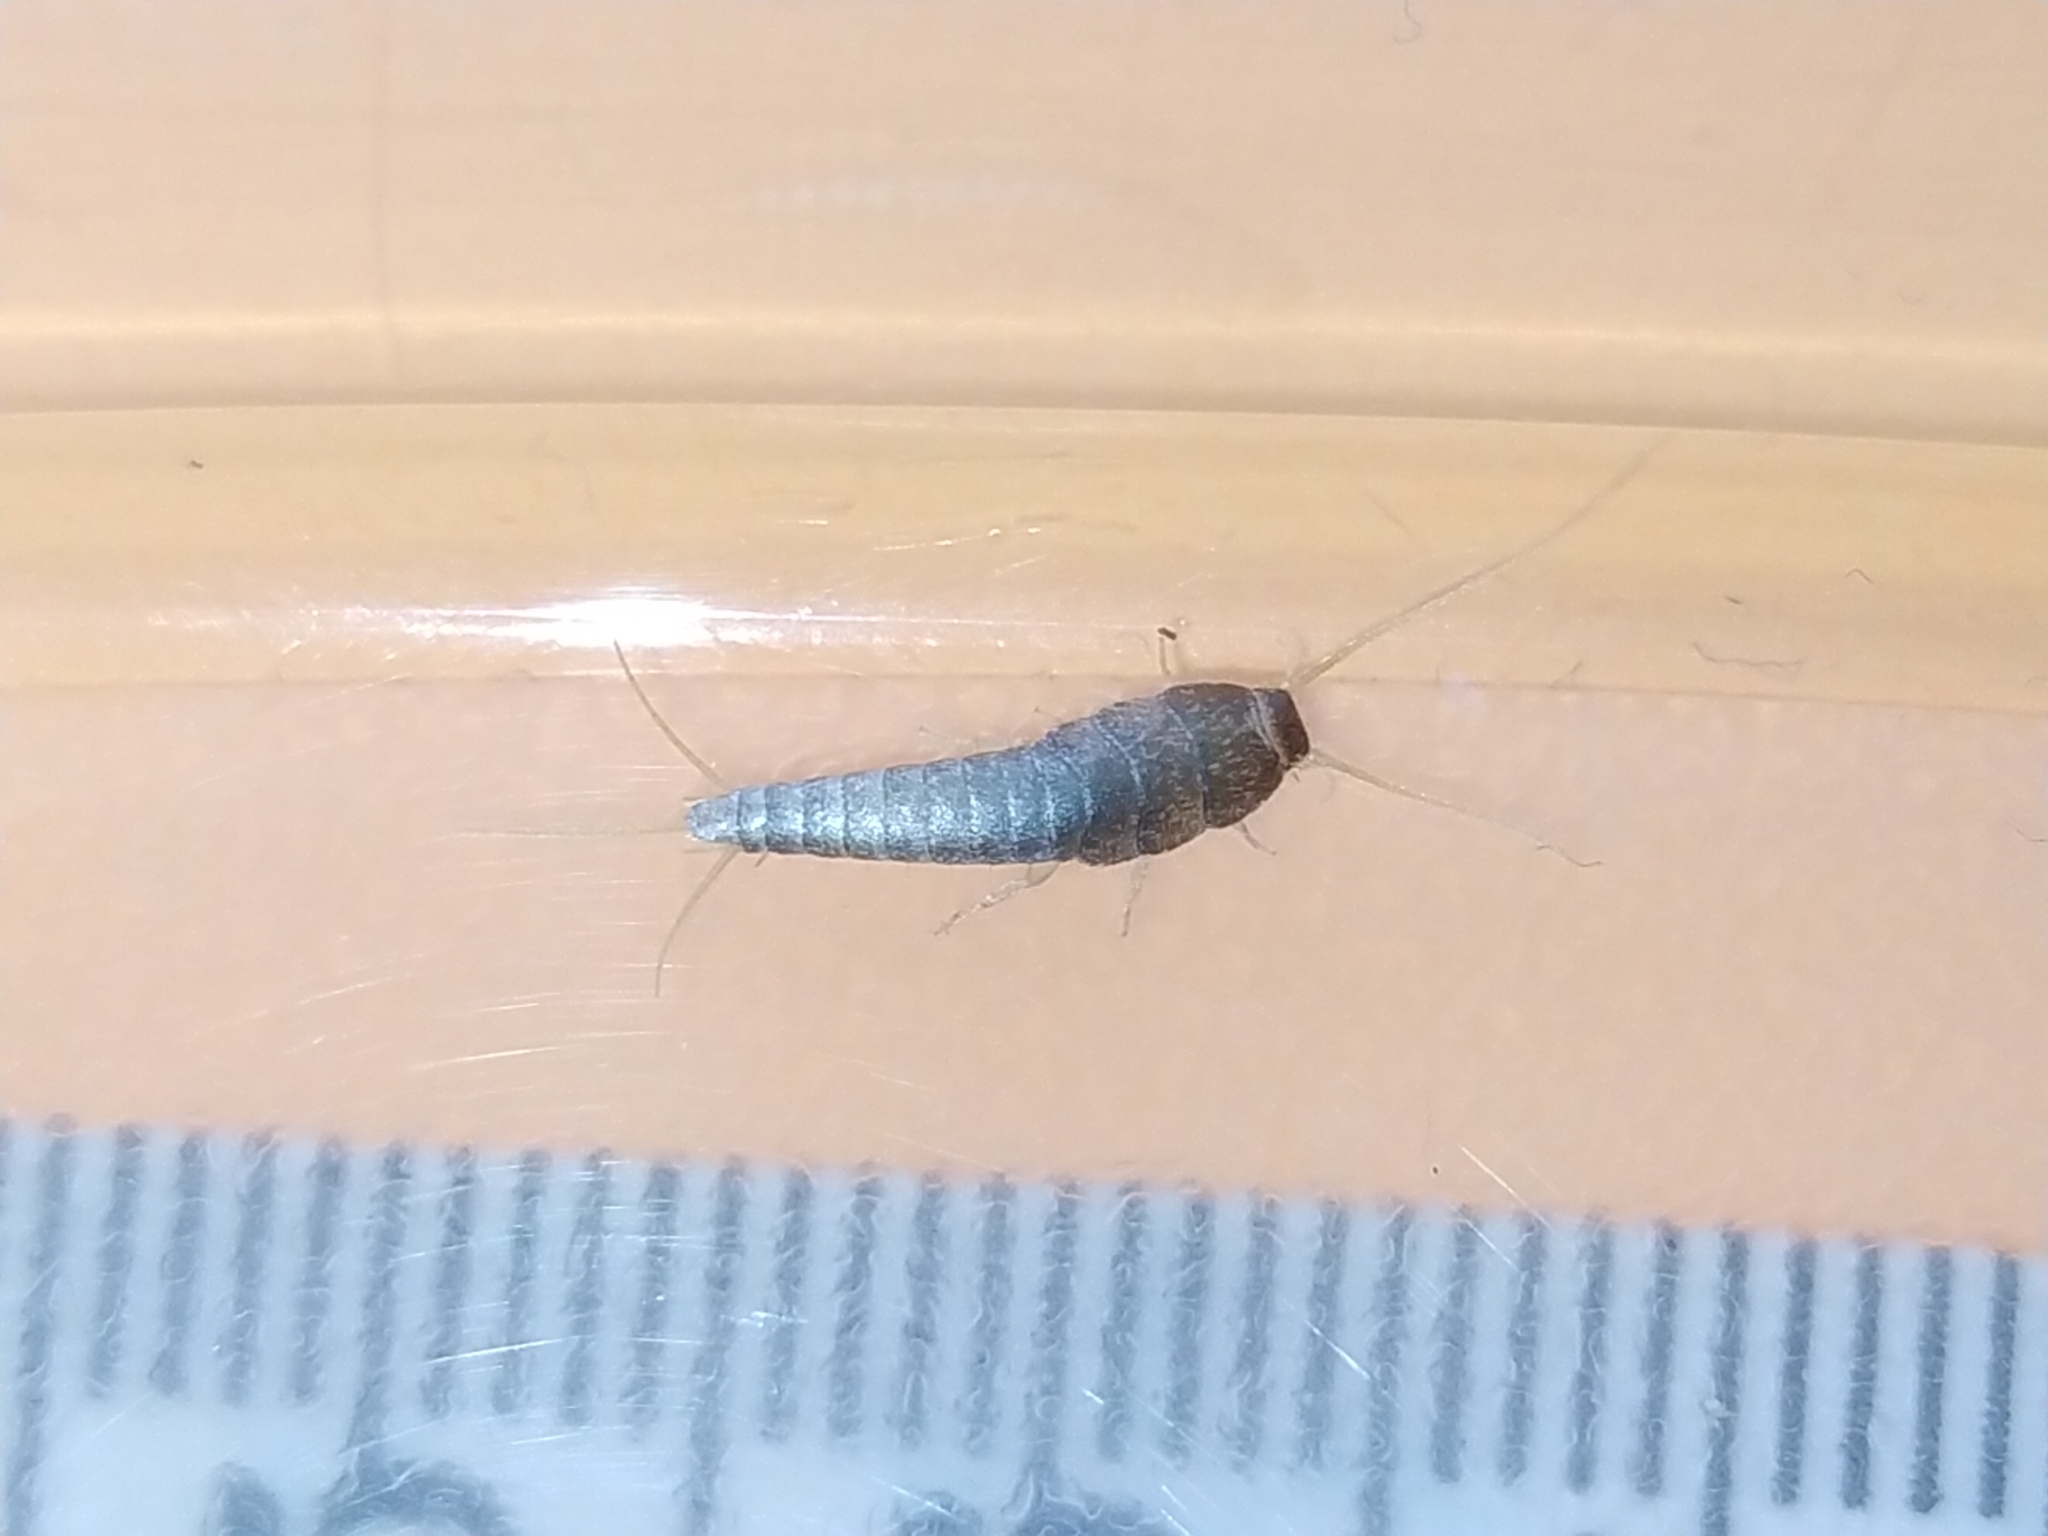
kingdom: Animalia
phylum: Arthropoda
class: Insecta
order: Zygentoma
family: Lepismatidae
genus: Lepisma
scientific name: Lepisma saccharinum
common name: Silverfish
